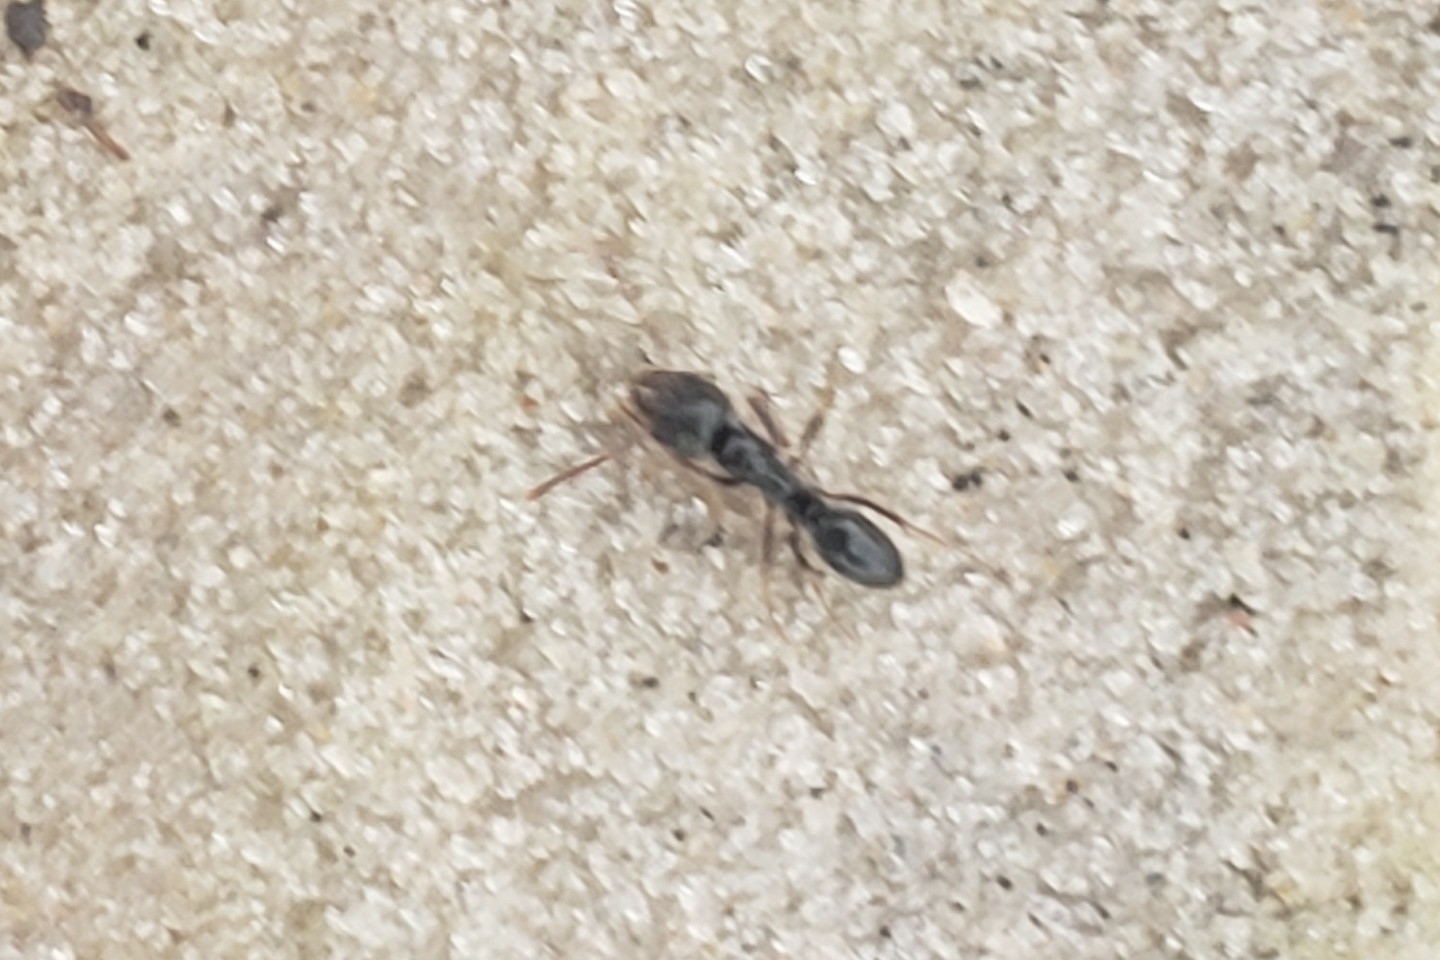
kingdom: Animalia
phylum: Arthropoda
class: Insecta
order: Hymenoptera
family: Formicidae
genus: Pachycondyla
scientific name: Pachycondyla sennaarensis
